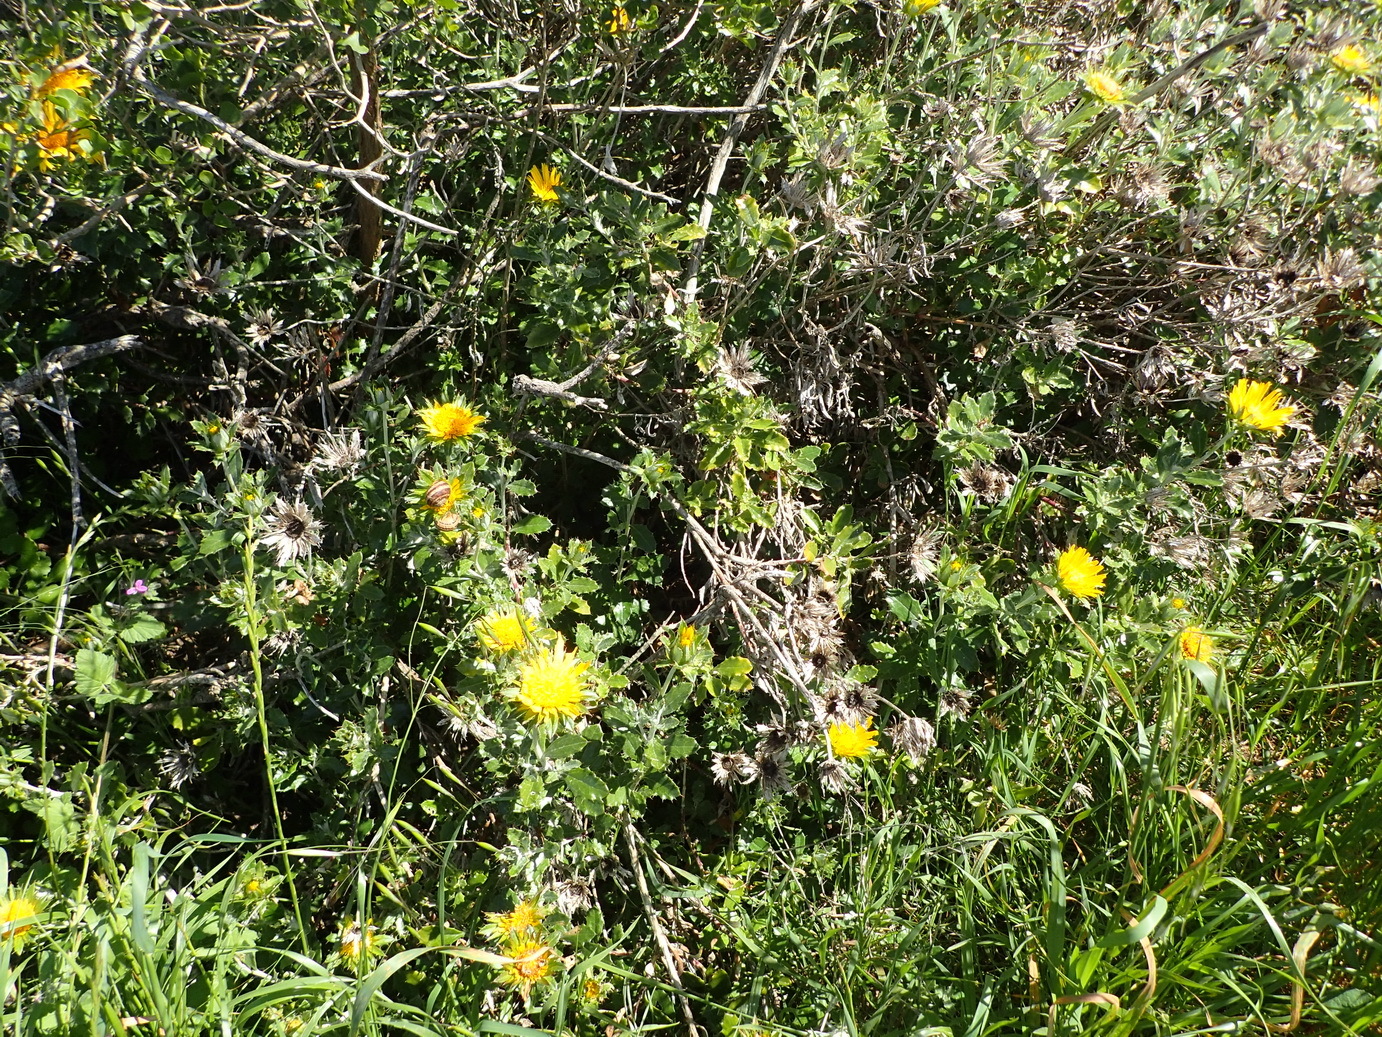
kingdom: Plantae
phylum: Tracheophyta
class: Magnoliopsida
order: Asterales
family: Asteraceae
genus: Berkheya
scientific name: Berkheya coriacea
